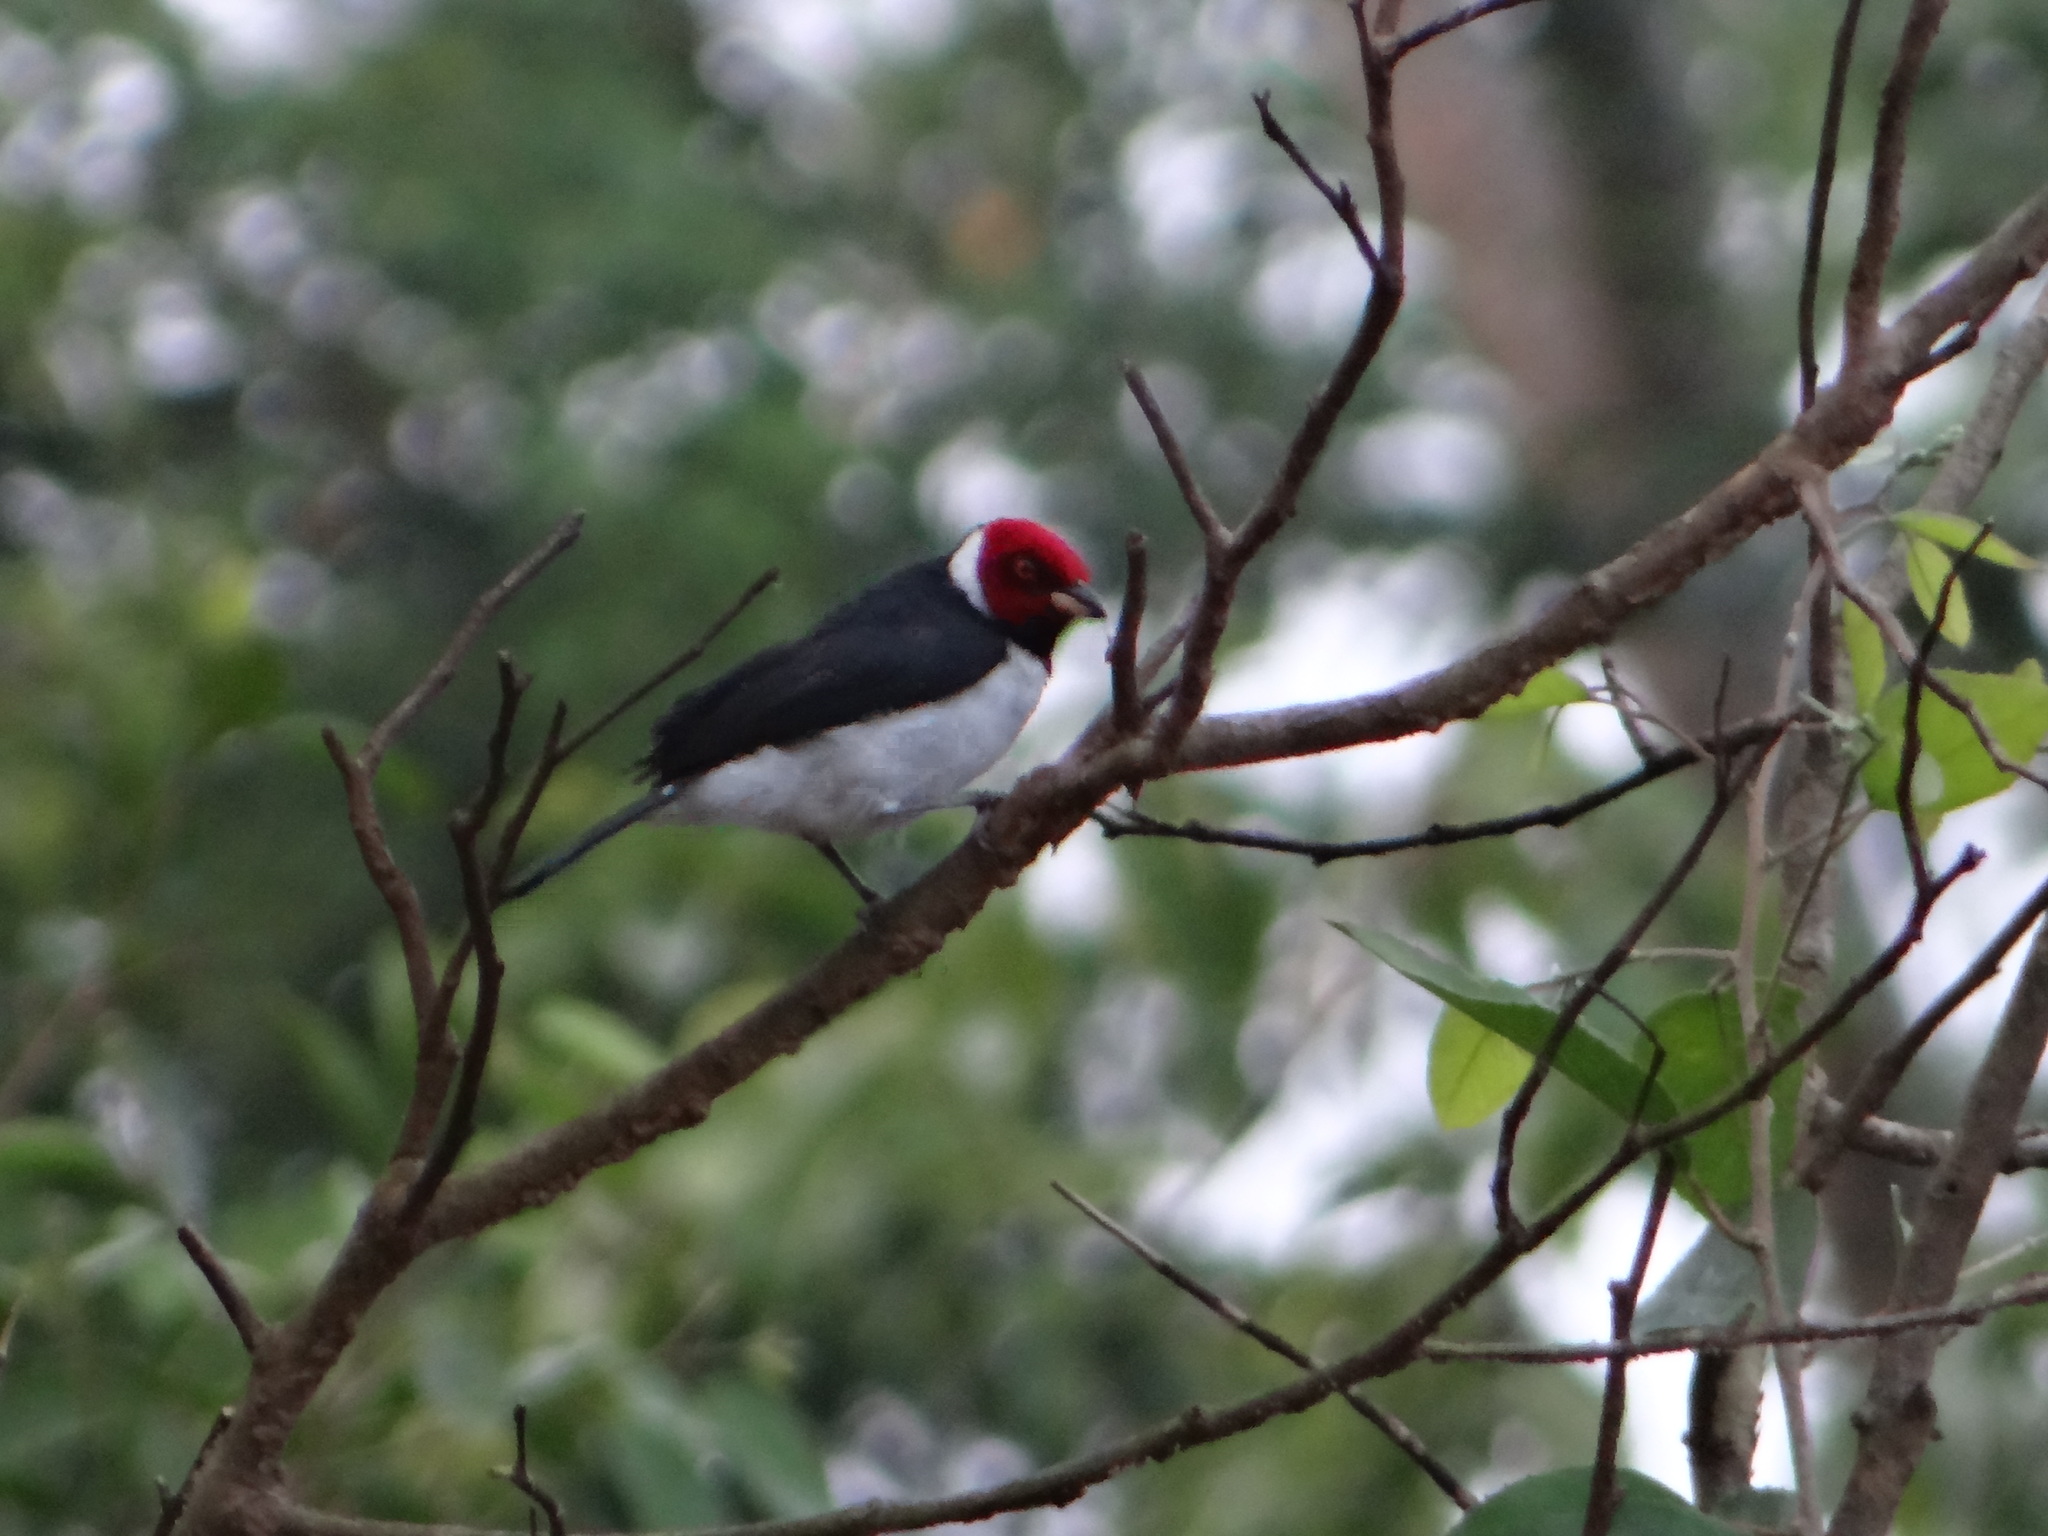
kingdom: Animalia
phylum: Chordata
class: Aves
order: Passeriformes
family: Thraupidae
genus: Paroaria
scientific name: Paroaria gularis
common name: Red-capped cardinal
